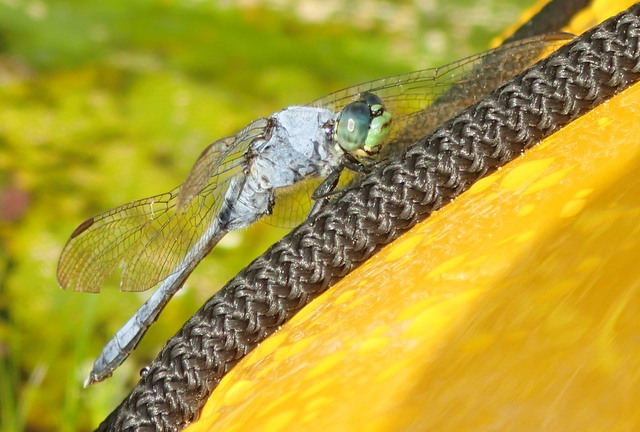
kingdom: Animalia
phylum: Arthropoda
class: Insecta
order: Odonata
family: Libellulidae
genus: Erythemis
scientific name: Erythemis simplicicollis
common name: Eastern pondhawk
